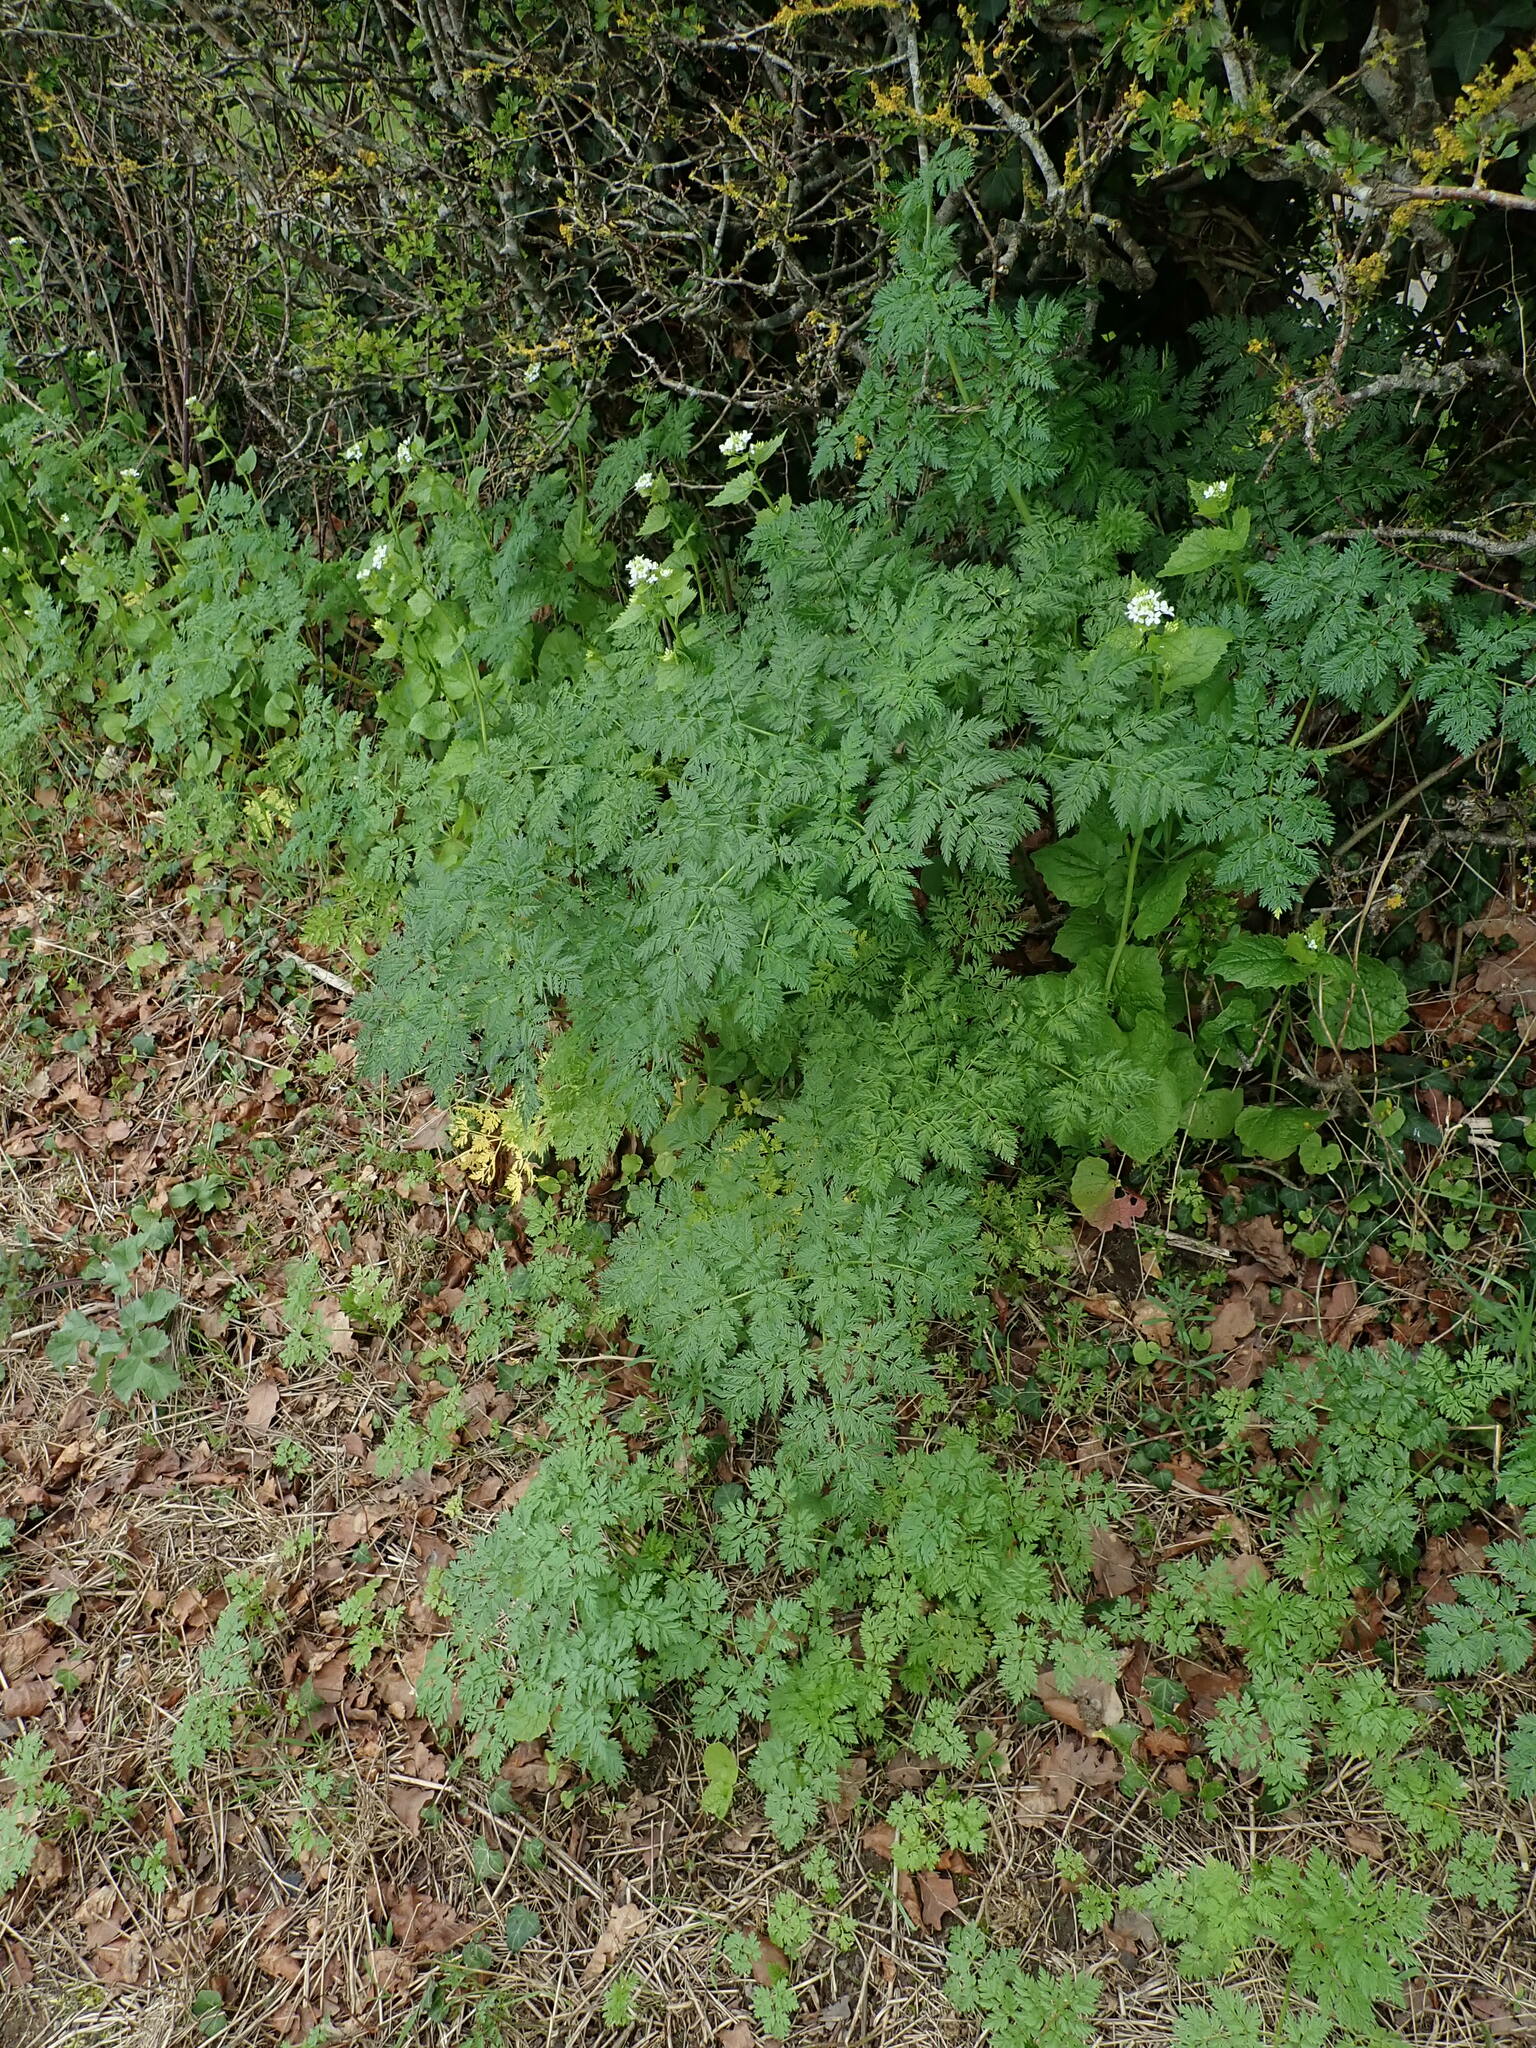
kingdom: Plantae
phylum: Tracheophyta
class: Magnoliopsida
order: Apiales
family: Apiaceae
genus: Conium
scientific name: Conium maculatum
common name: Hemlock
